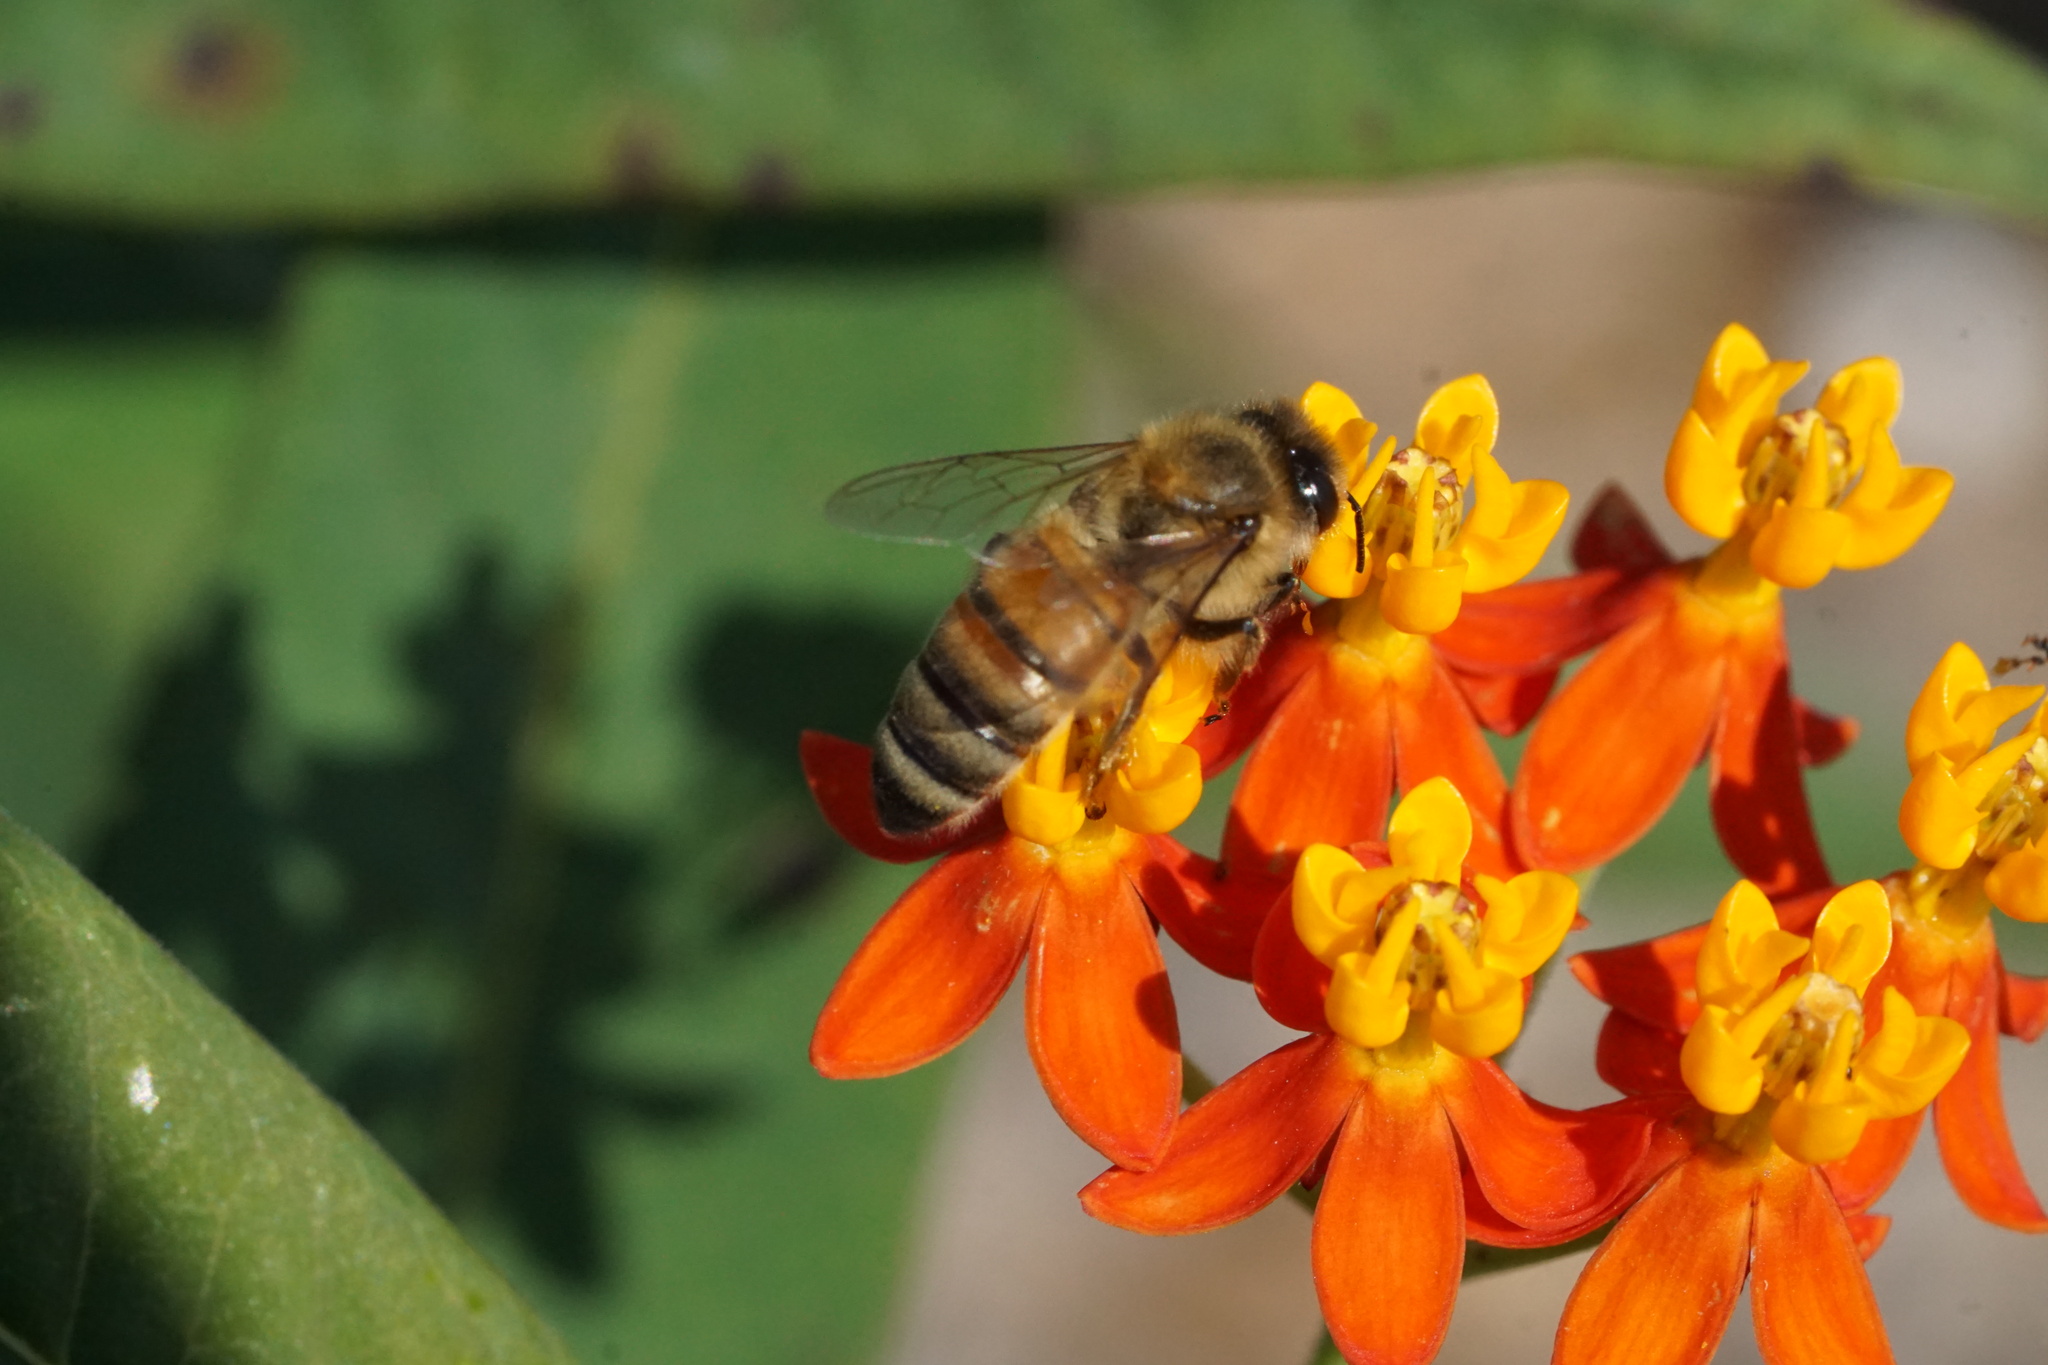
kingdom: Animalia
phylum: Arthropoda
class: Insecta
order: Hymenoptera
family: Apidae
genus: Apis
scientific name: Apis mellifera
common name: Honey bee
